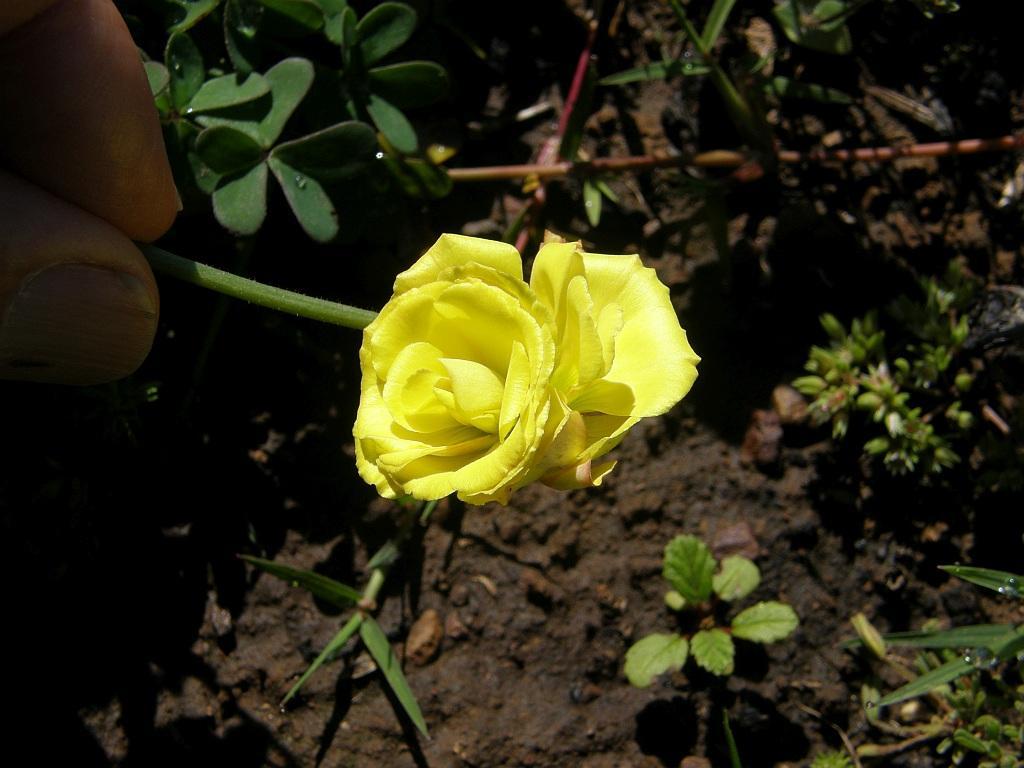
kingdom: Plantae
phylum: Tracheophyta
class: Magnoliopsida
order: Oxalidales
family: Oxalidaceae
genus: Oxalis
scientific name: Oxalis pes-caprae
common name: Bermuda-buttercup
